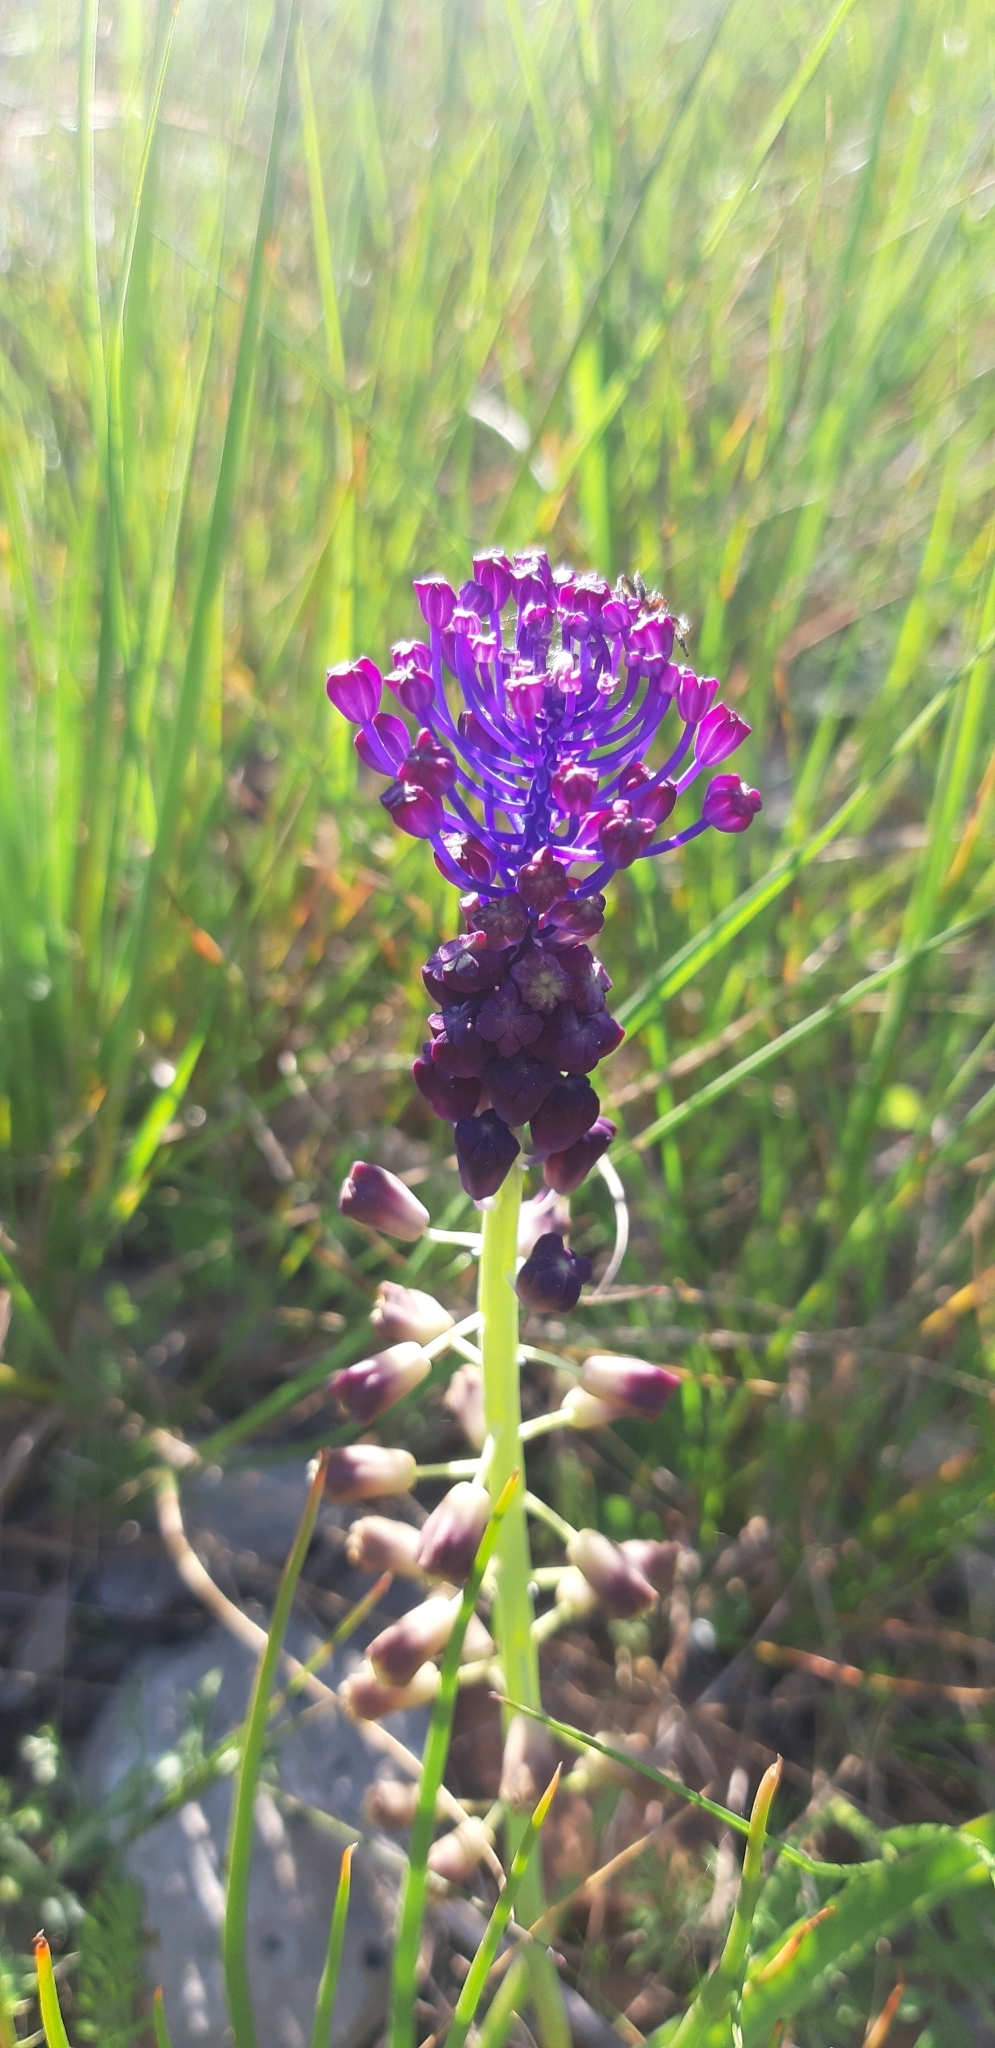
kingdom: Plantae
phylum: Tracheophyta
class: Liliopsida
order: Asparagales
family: Asparagaceae
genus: Muscari
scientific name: Muscari comosum
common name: Tassel hyacinth
